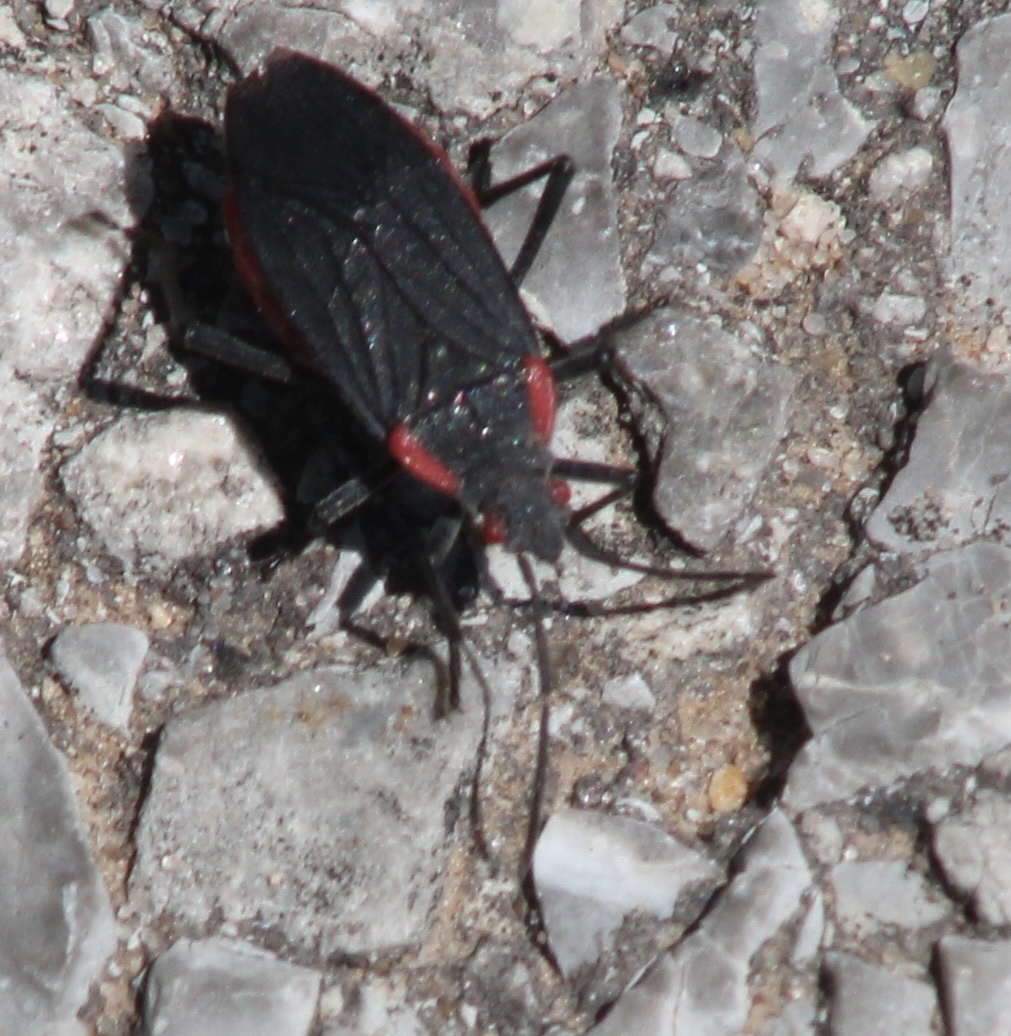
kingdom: Animalia
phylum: Arthropoda
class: Insecta
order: Hemiptera
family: Rhopalidae
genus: Jadera
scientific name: Jadera haematoloma
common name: Red-shouldered bug
